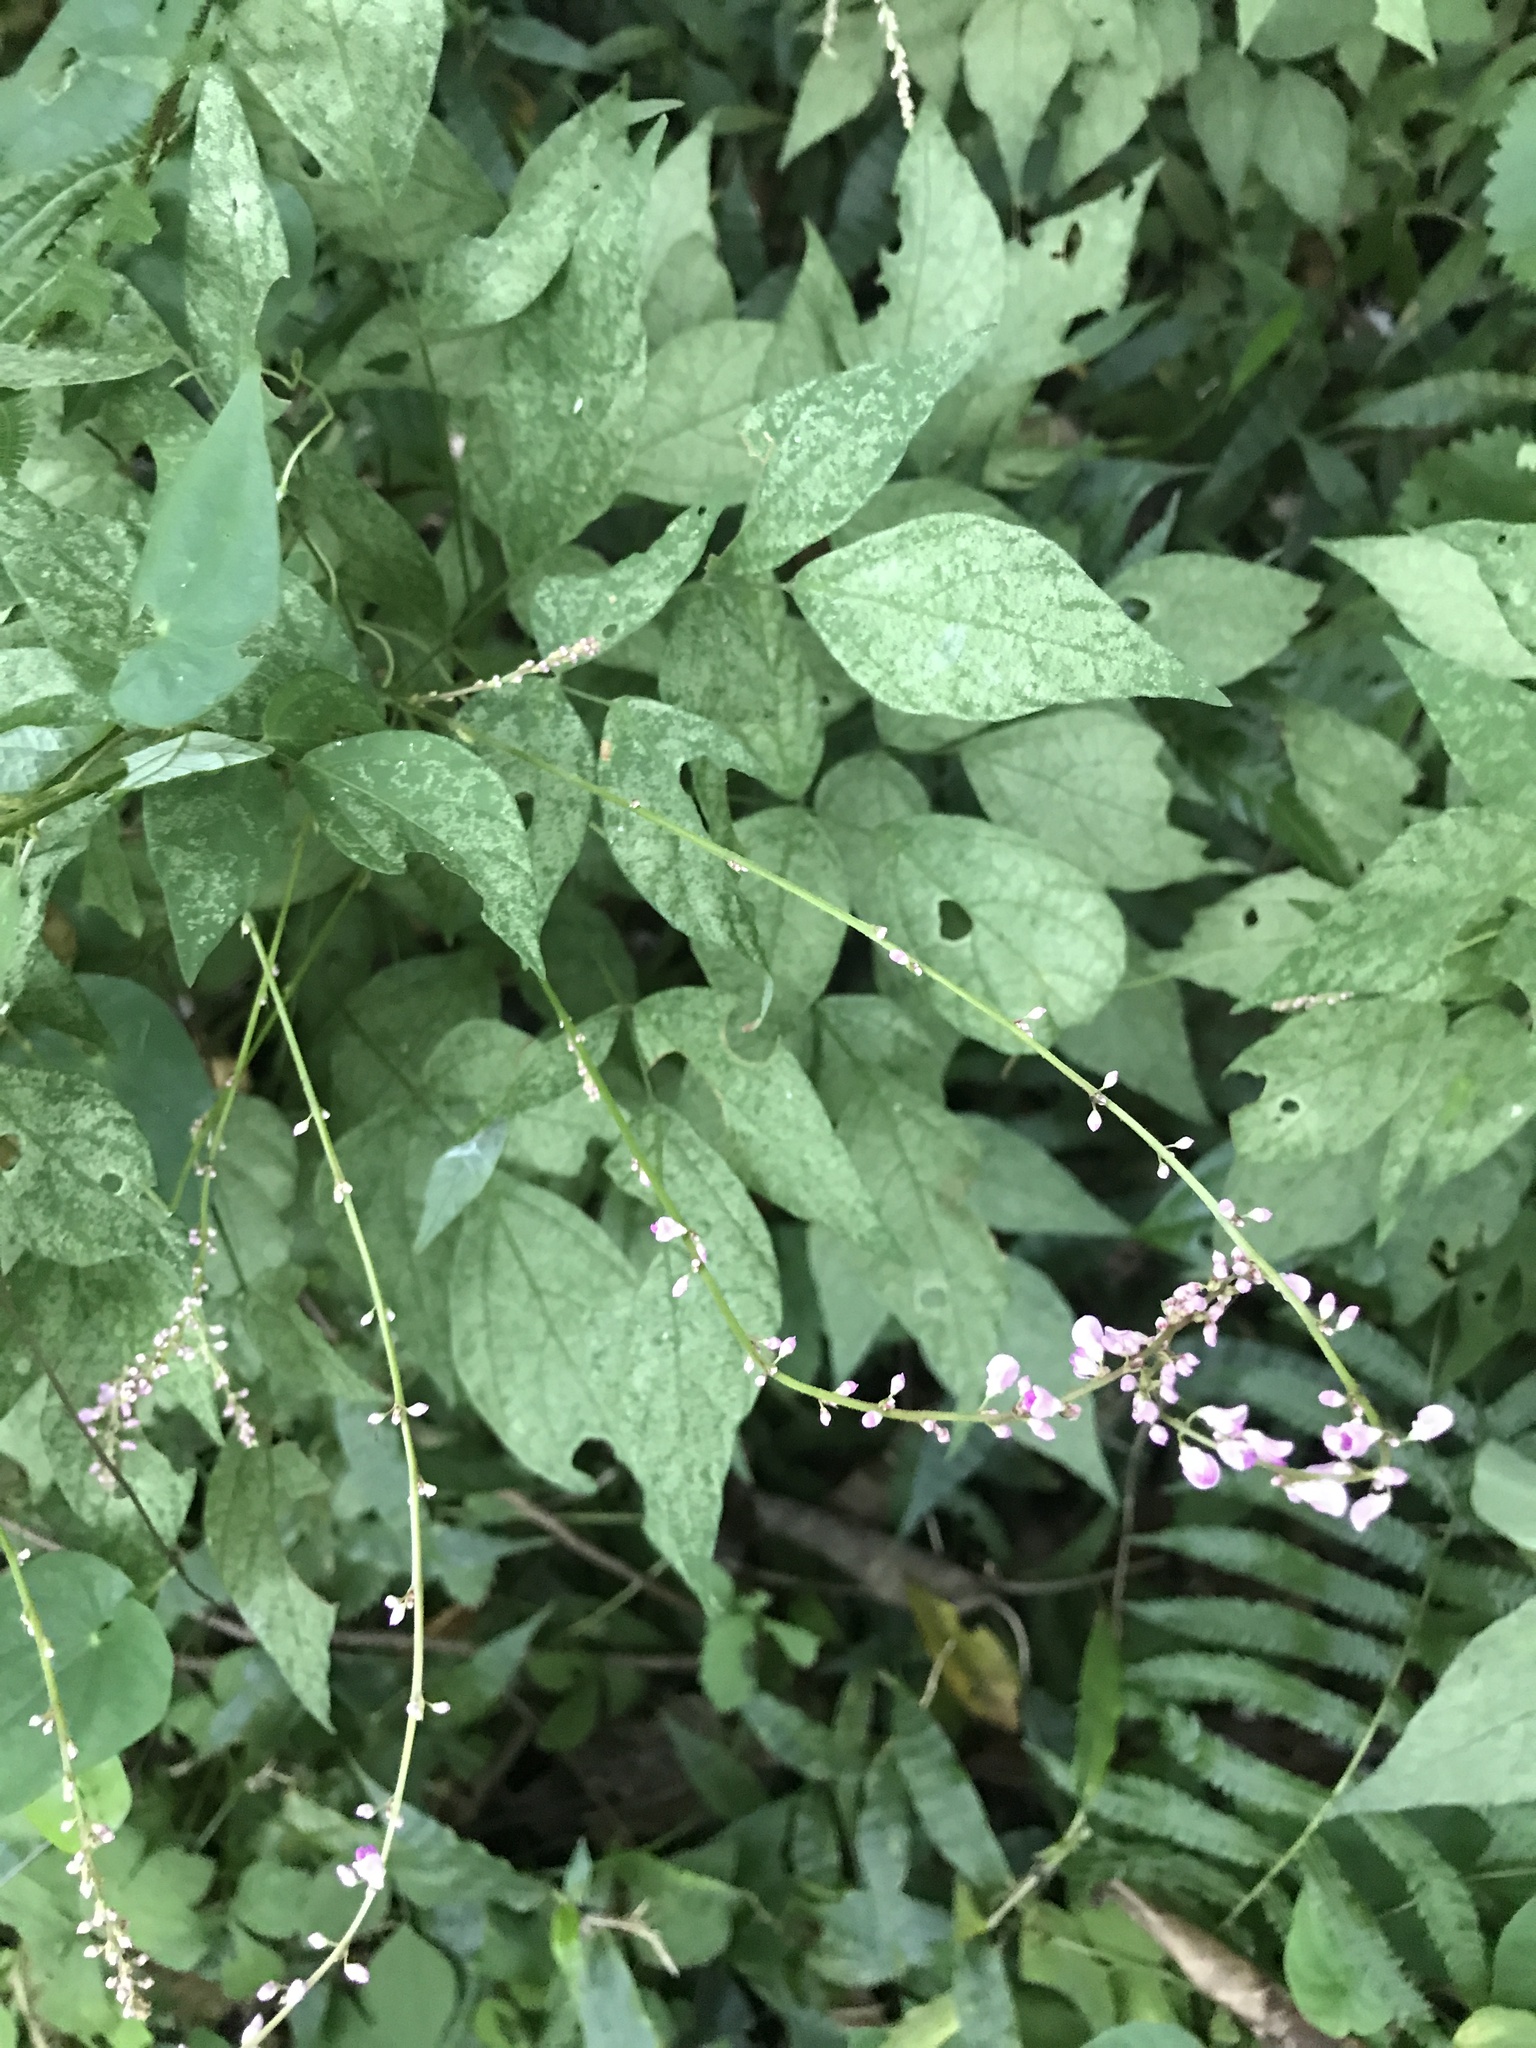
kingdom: Plantae
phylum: Tracheophyta
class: Magnoliopsida
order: Fabales
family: Fabaceae
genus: Hylodesmum
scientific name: Hylodesmum podocarpum
